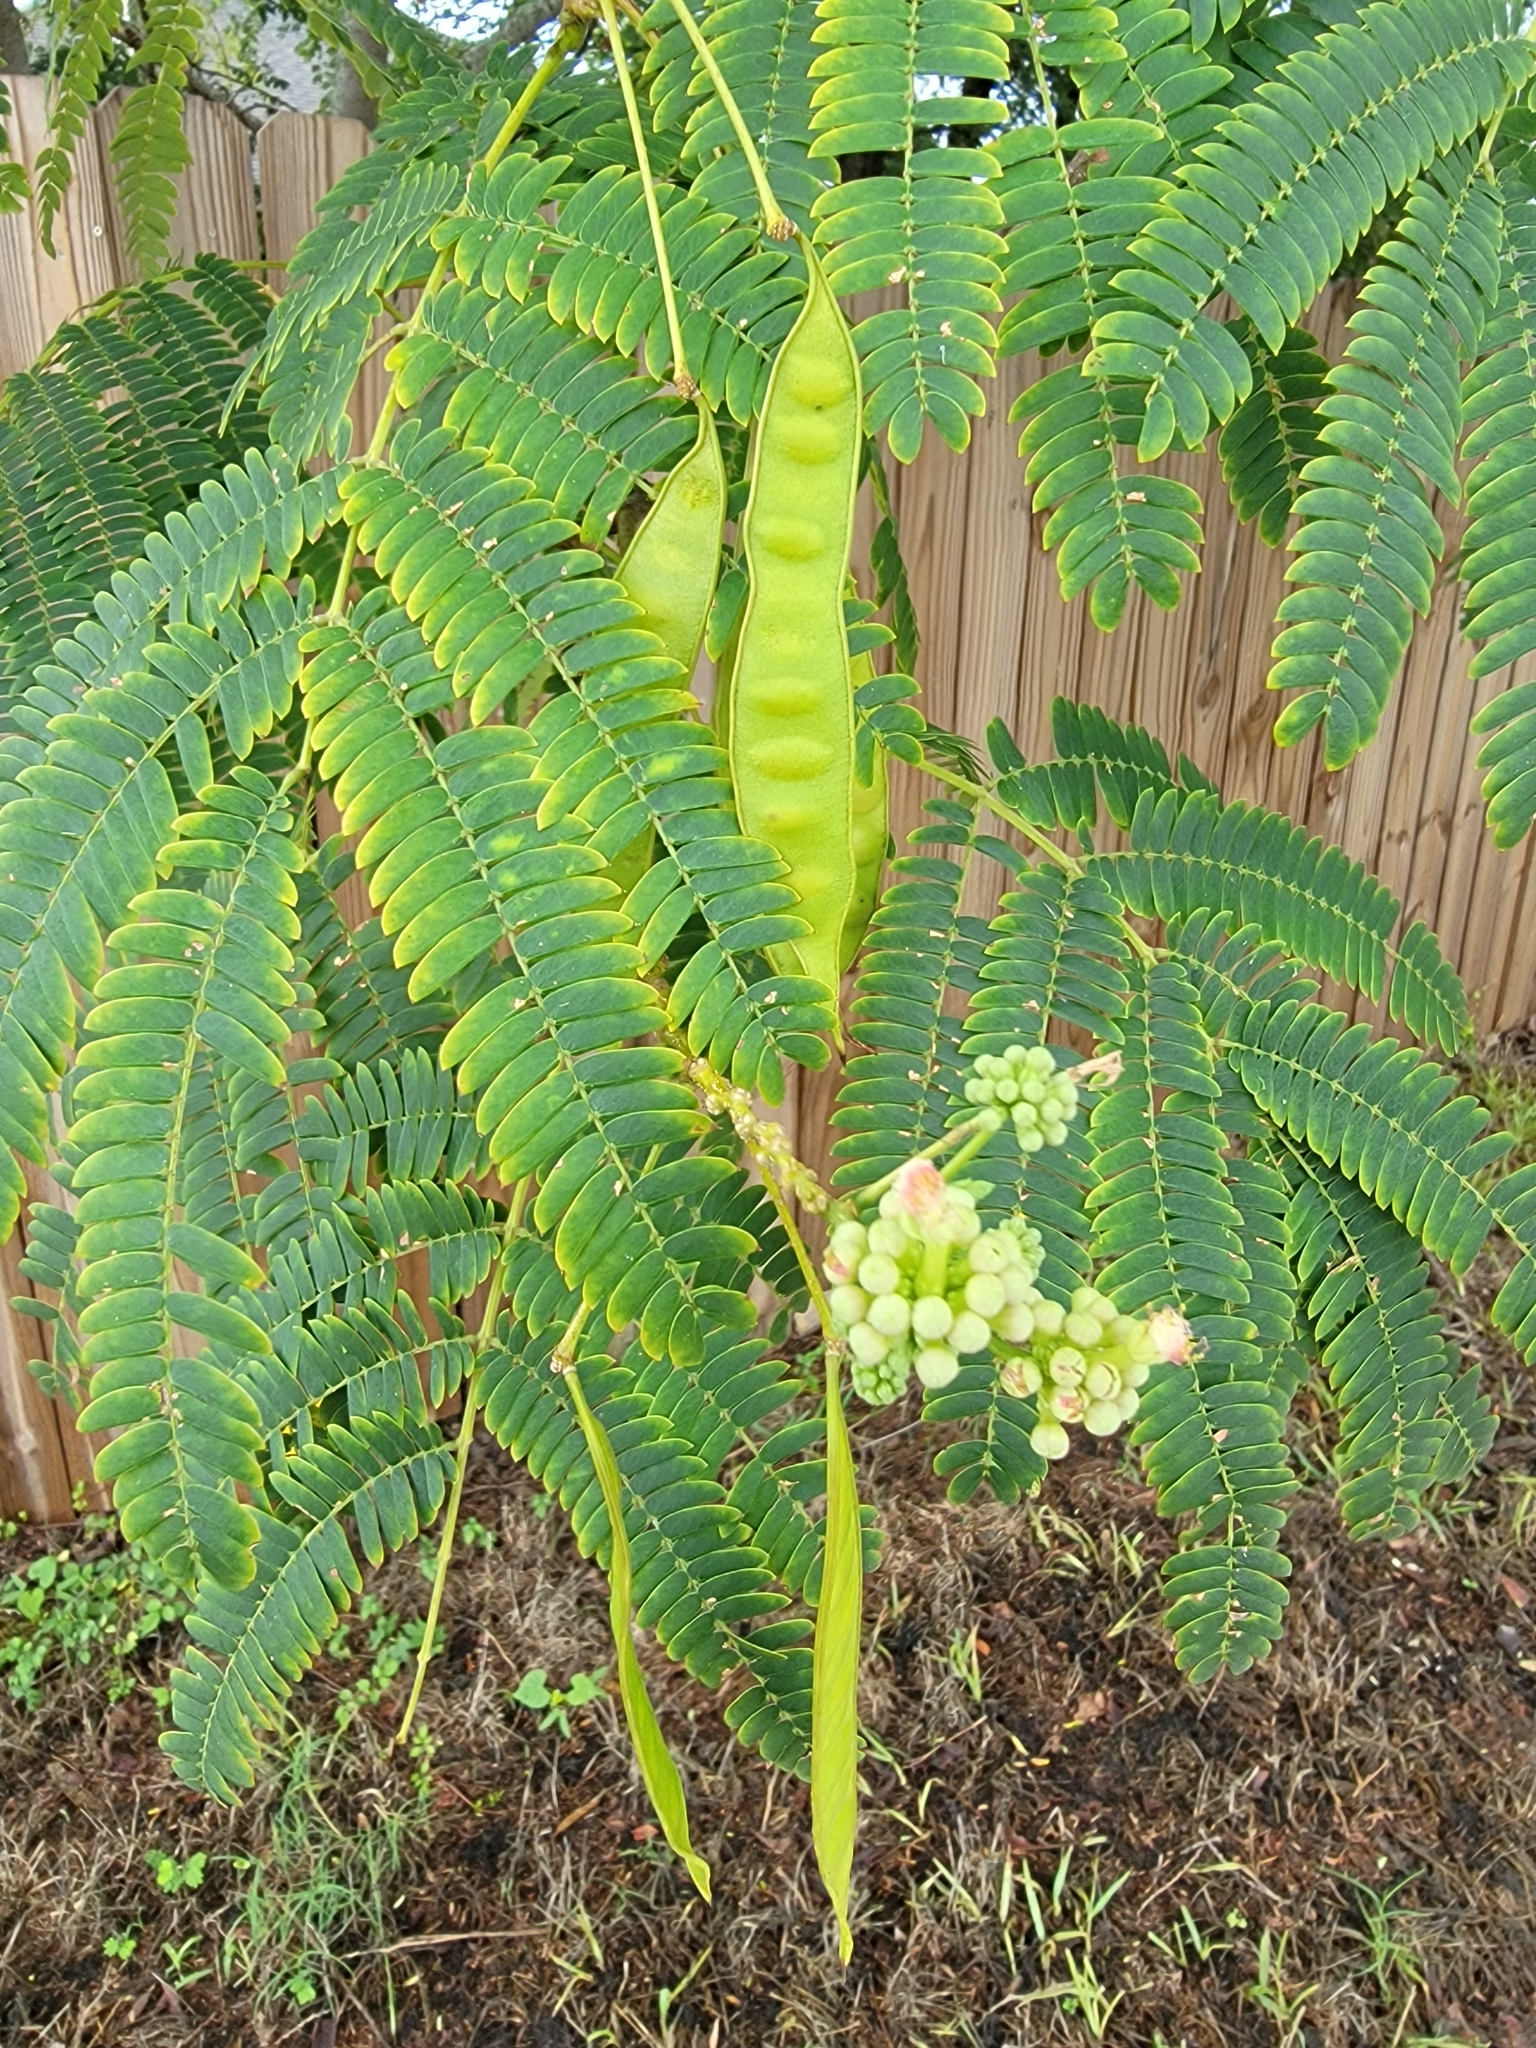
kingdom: Plantae
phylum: Tracheophyta
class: Magnoliopsida
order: Fabales
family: Fabaceae
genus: Albizia
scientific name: Albizia julibrissin
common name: Silktree
